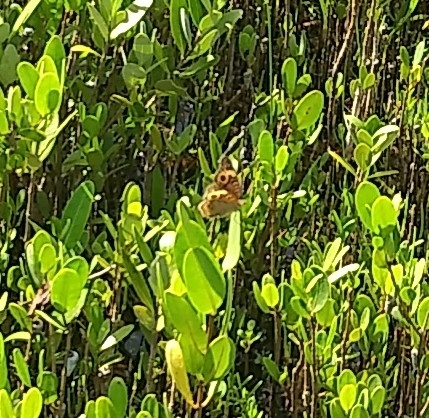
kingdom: Animalia
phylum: Arthropoda
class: Insecta
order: Lepidoptera
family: Nymphalidae
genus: Junonia
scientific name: Junonia neildi
